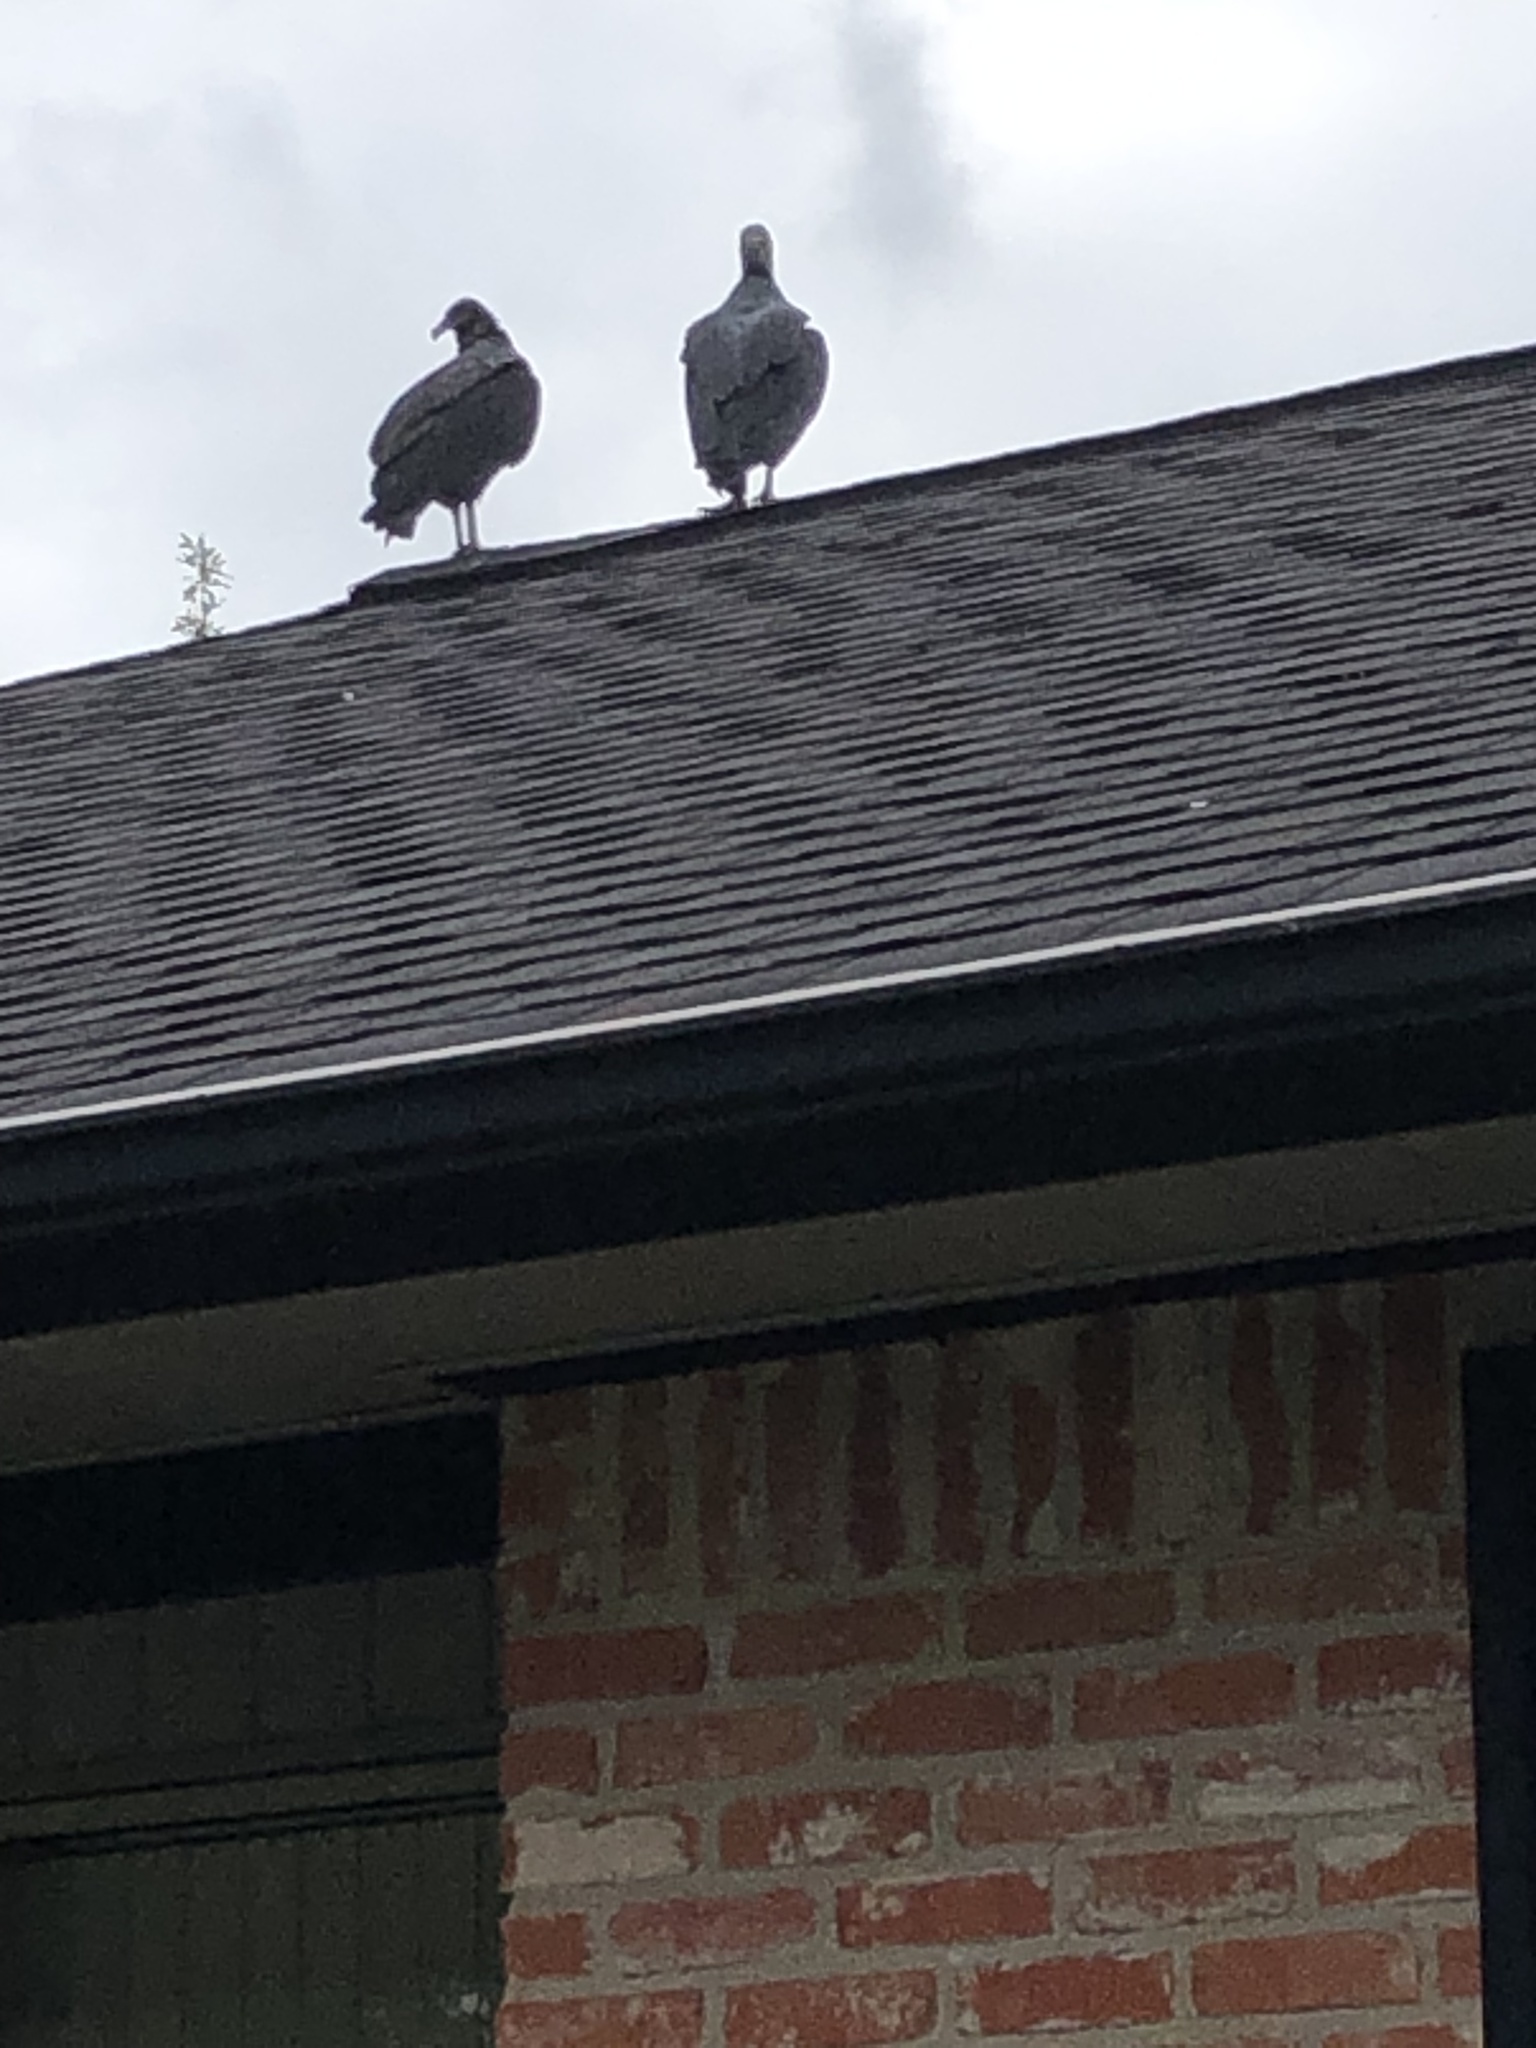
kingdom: Animalia
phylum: Chordata
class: Aves
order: Accipitriformes
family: Cathartidae
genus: Coragyps
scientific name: Coragyps atratus
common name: Black vulture
